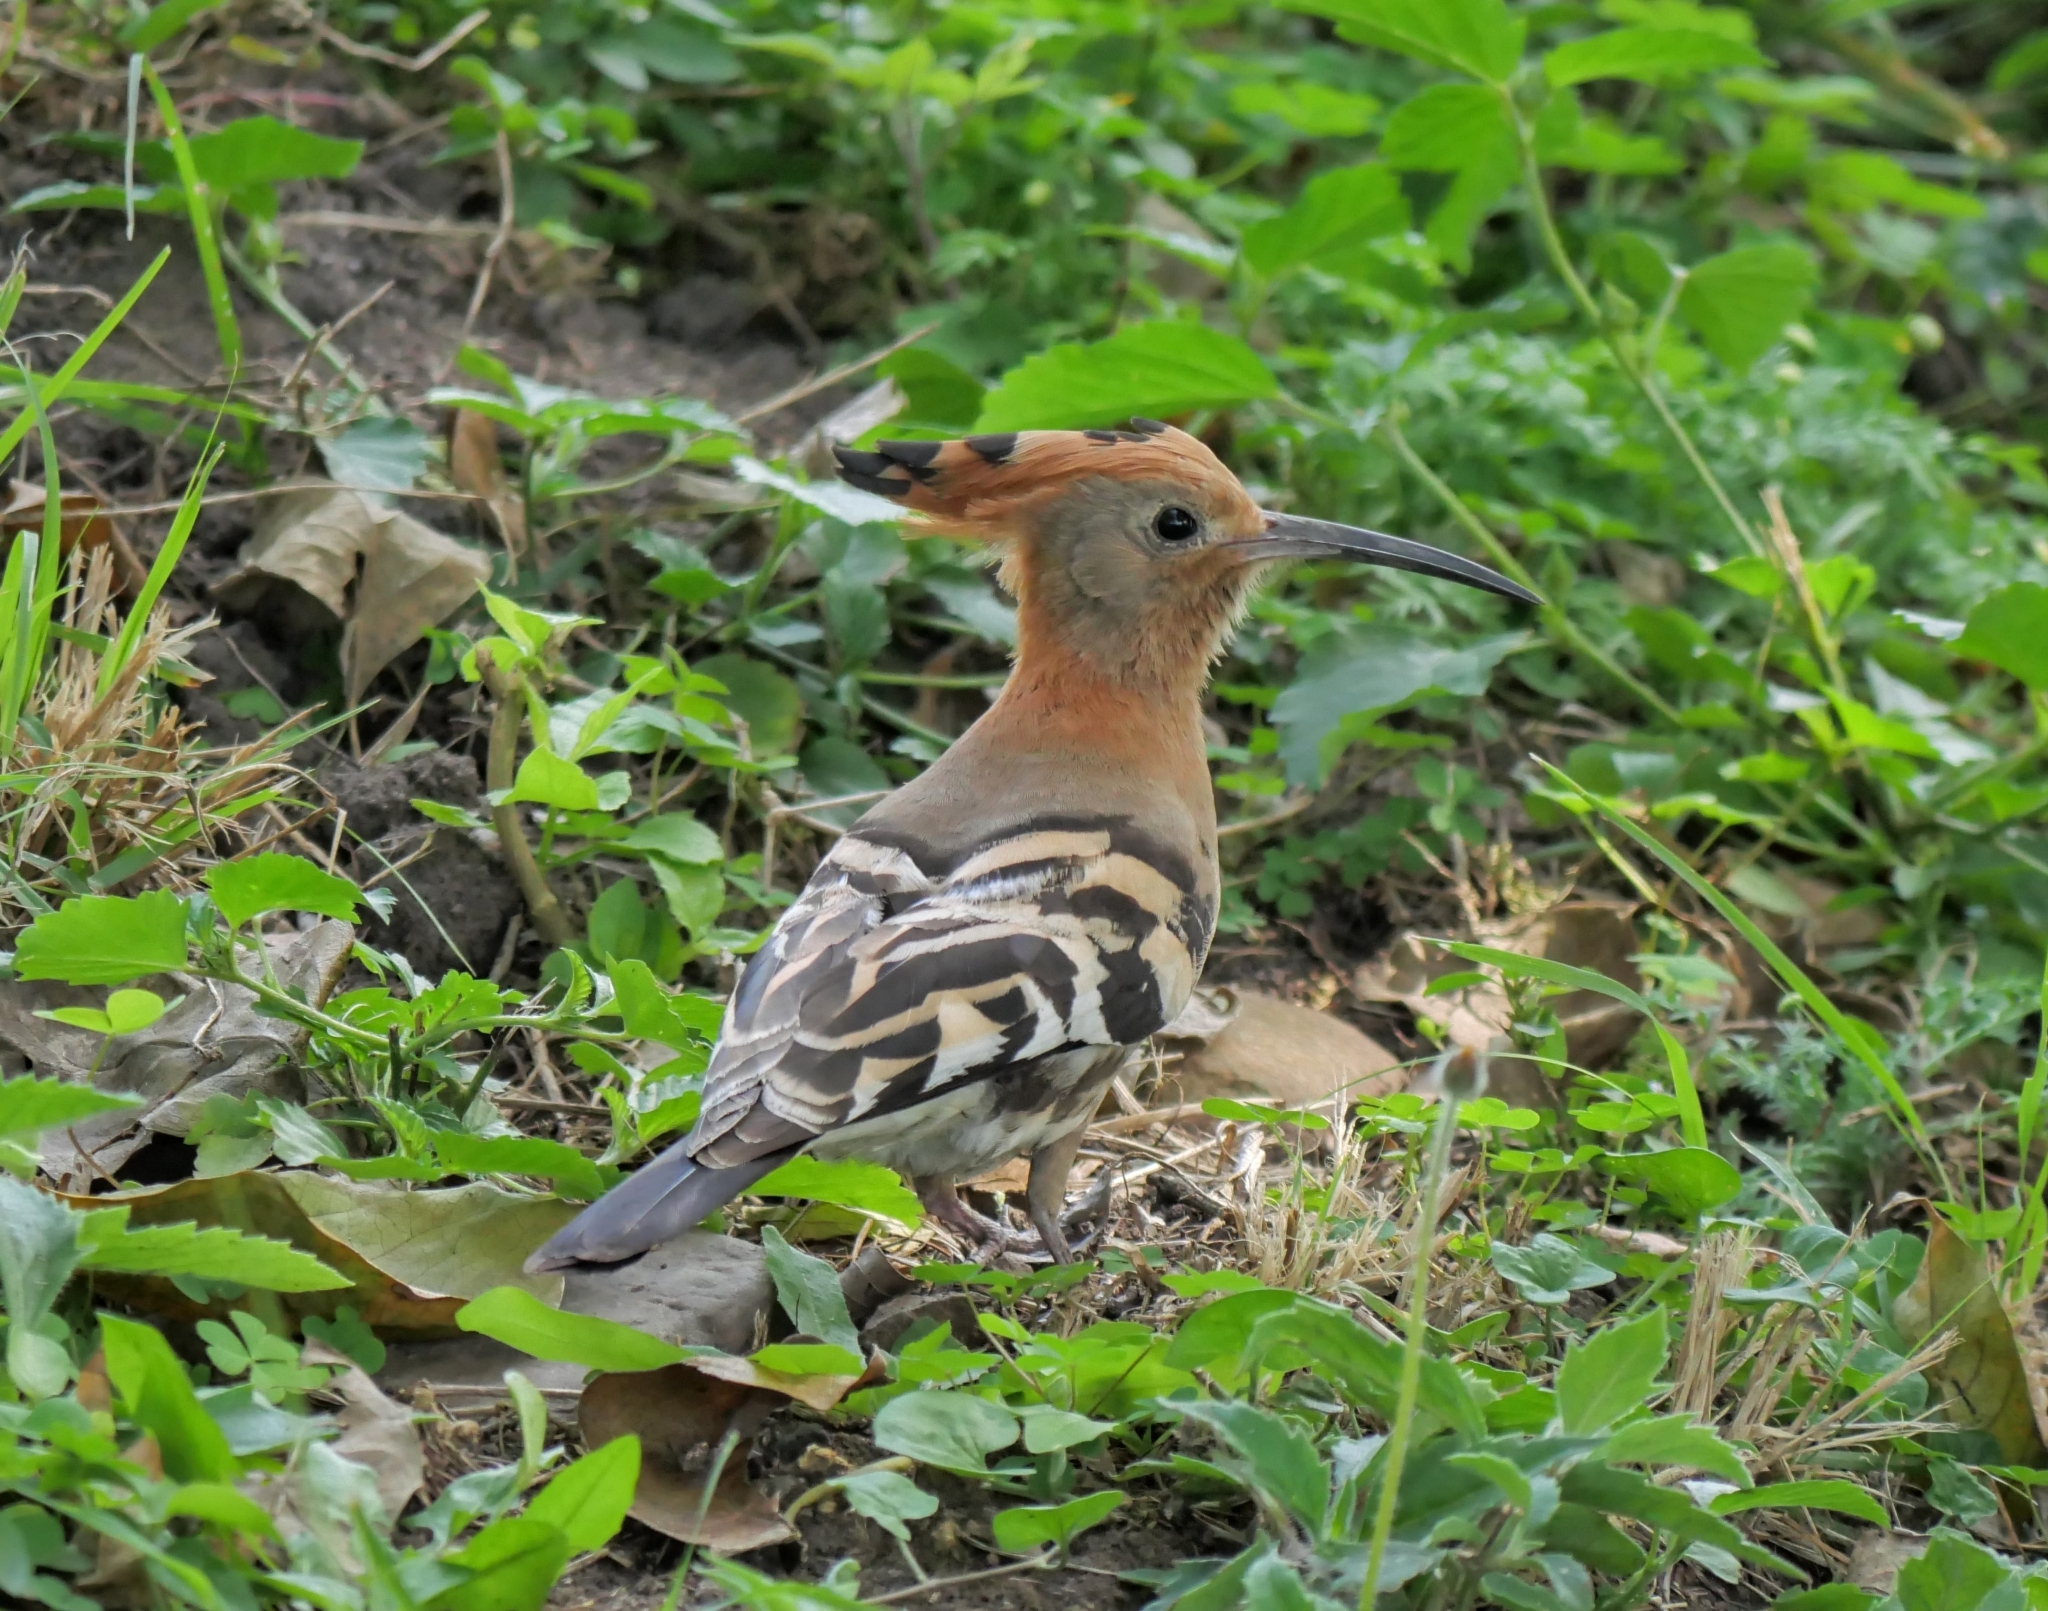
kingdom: Animalia
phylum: Chordata
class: Aves
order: Bucerotiformes
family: Upupidae
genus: Upupa
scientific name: Upupa africana
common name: African hoopoe
